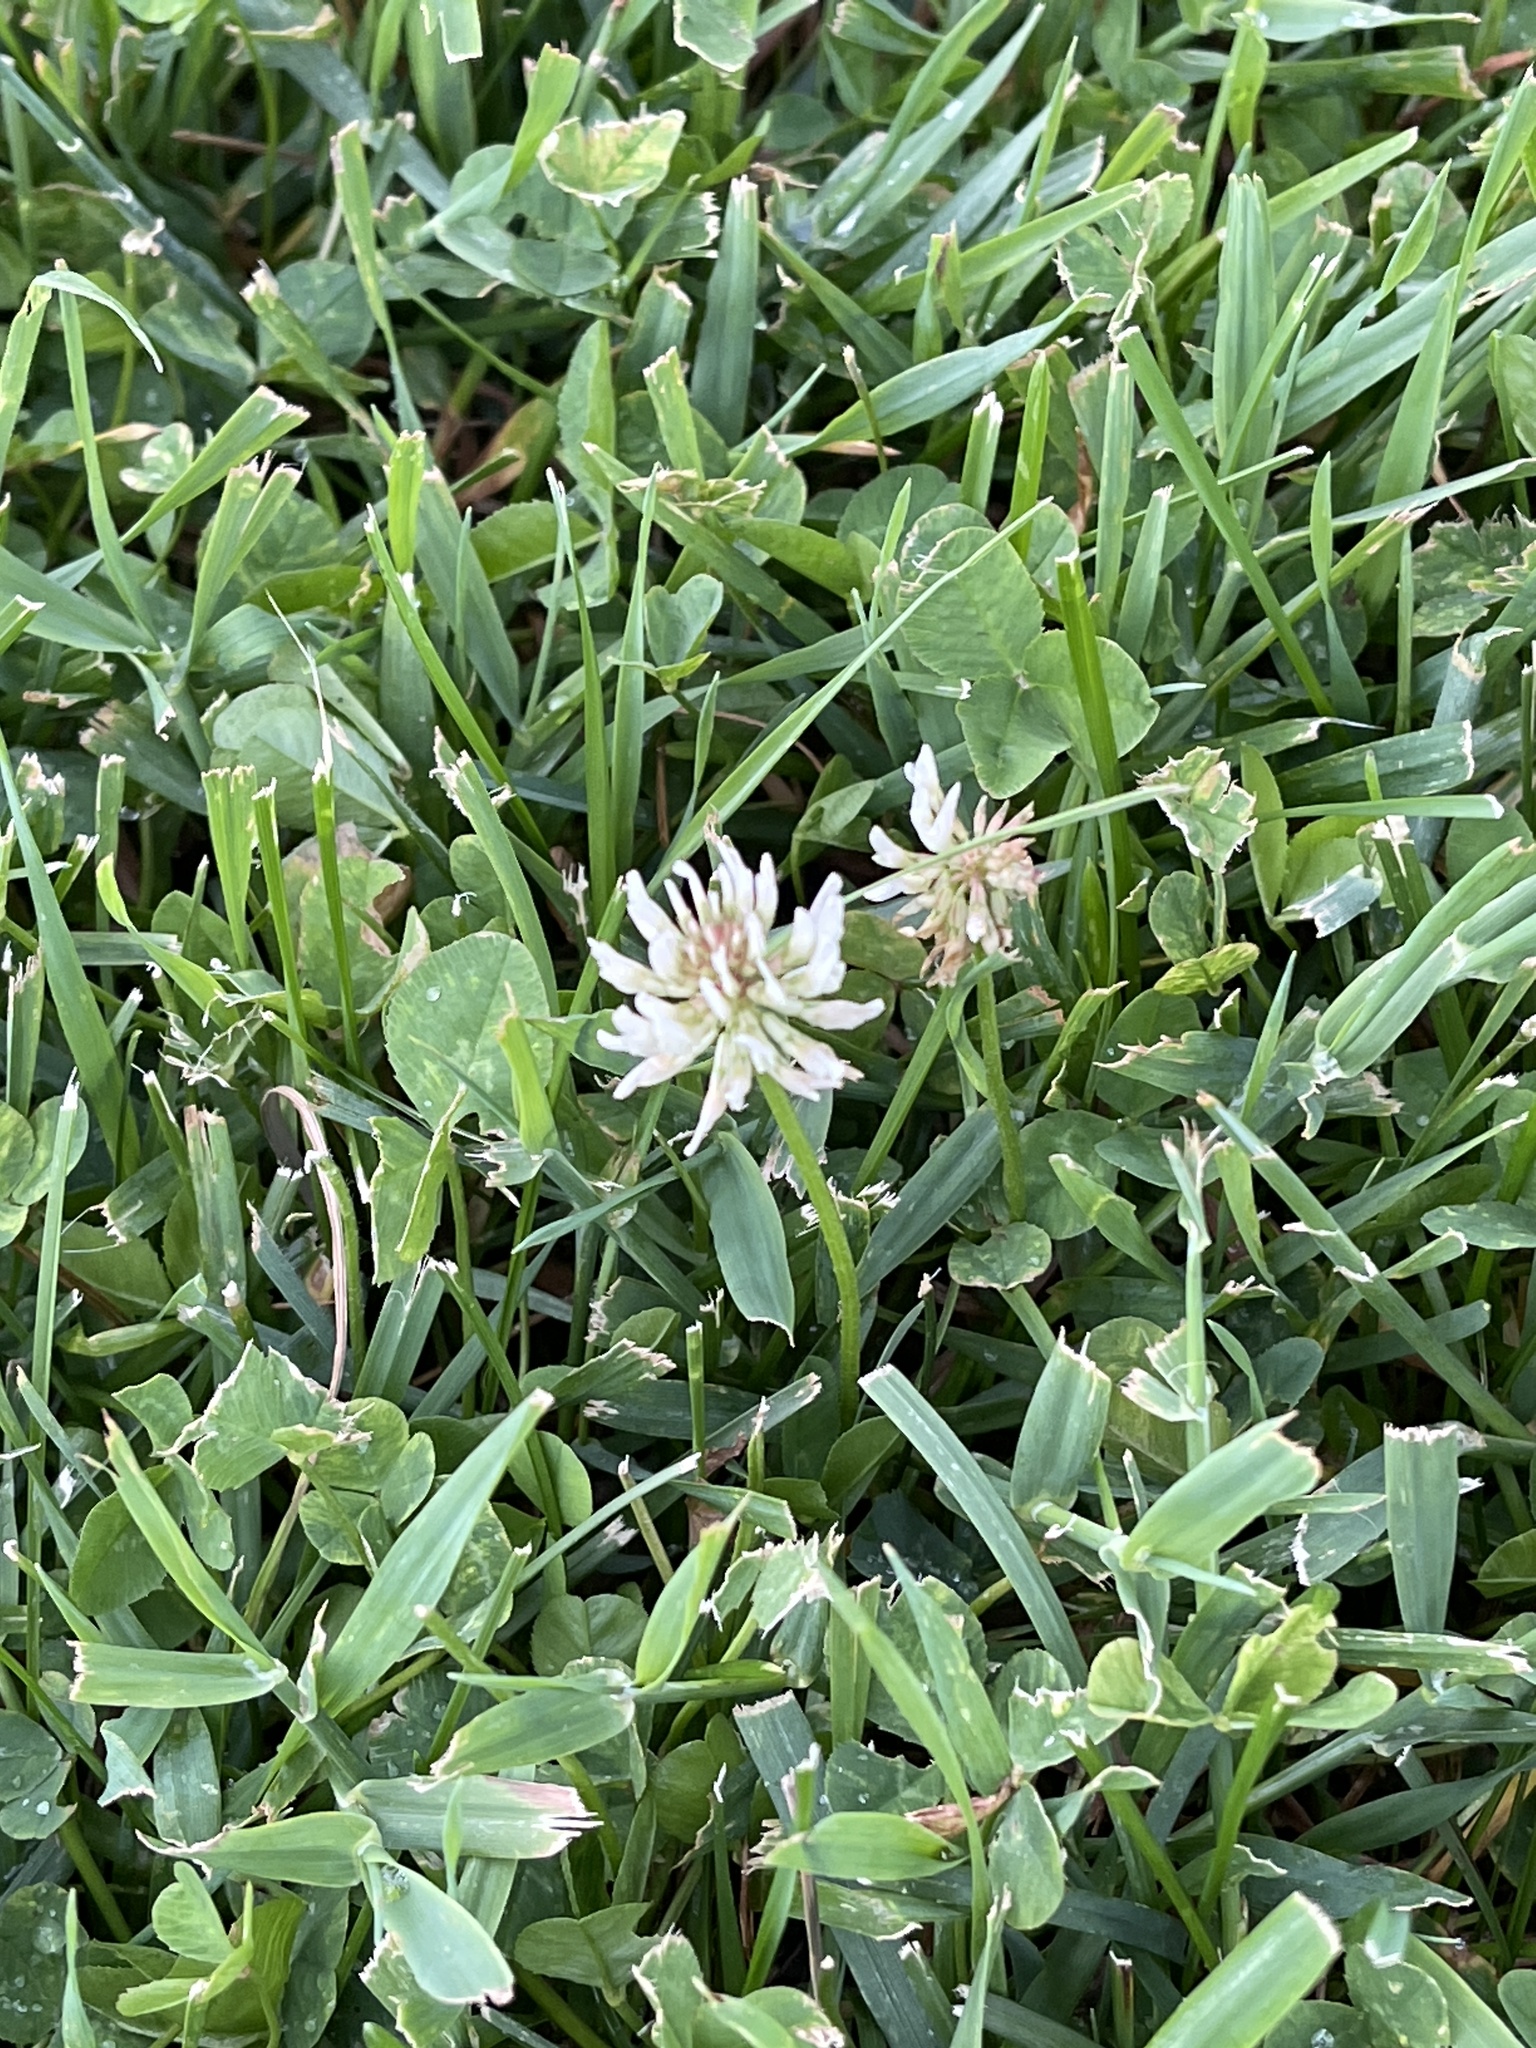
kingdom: Plantae
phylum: Tracheophyta
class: Magnoliopsida
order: Fabales
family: Fabaceae
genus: Trifolium
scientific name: Trifolium repens
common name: White clover
